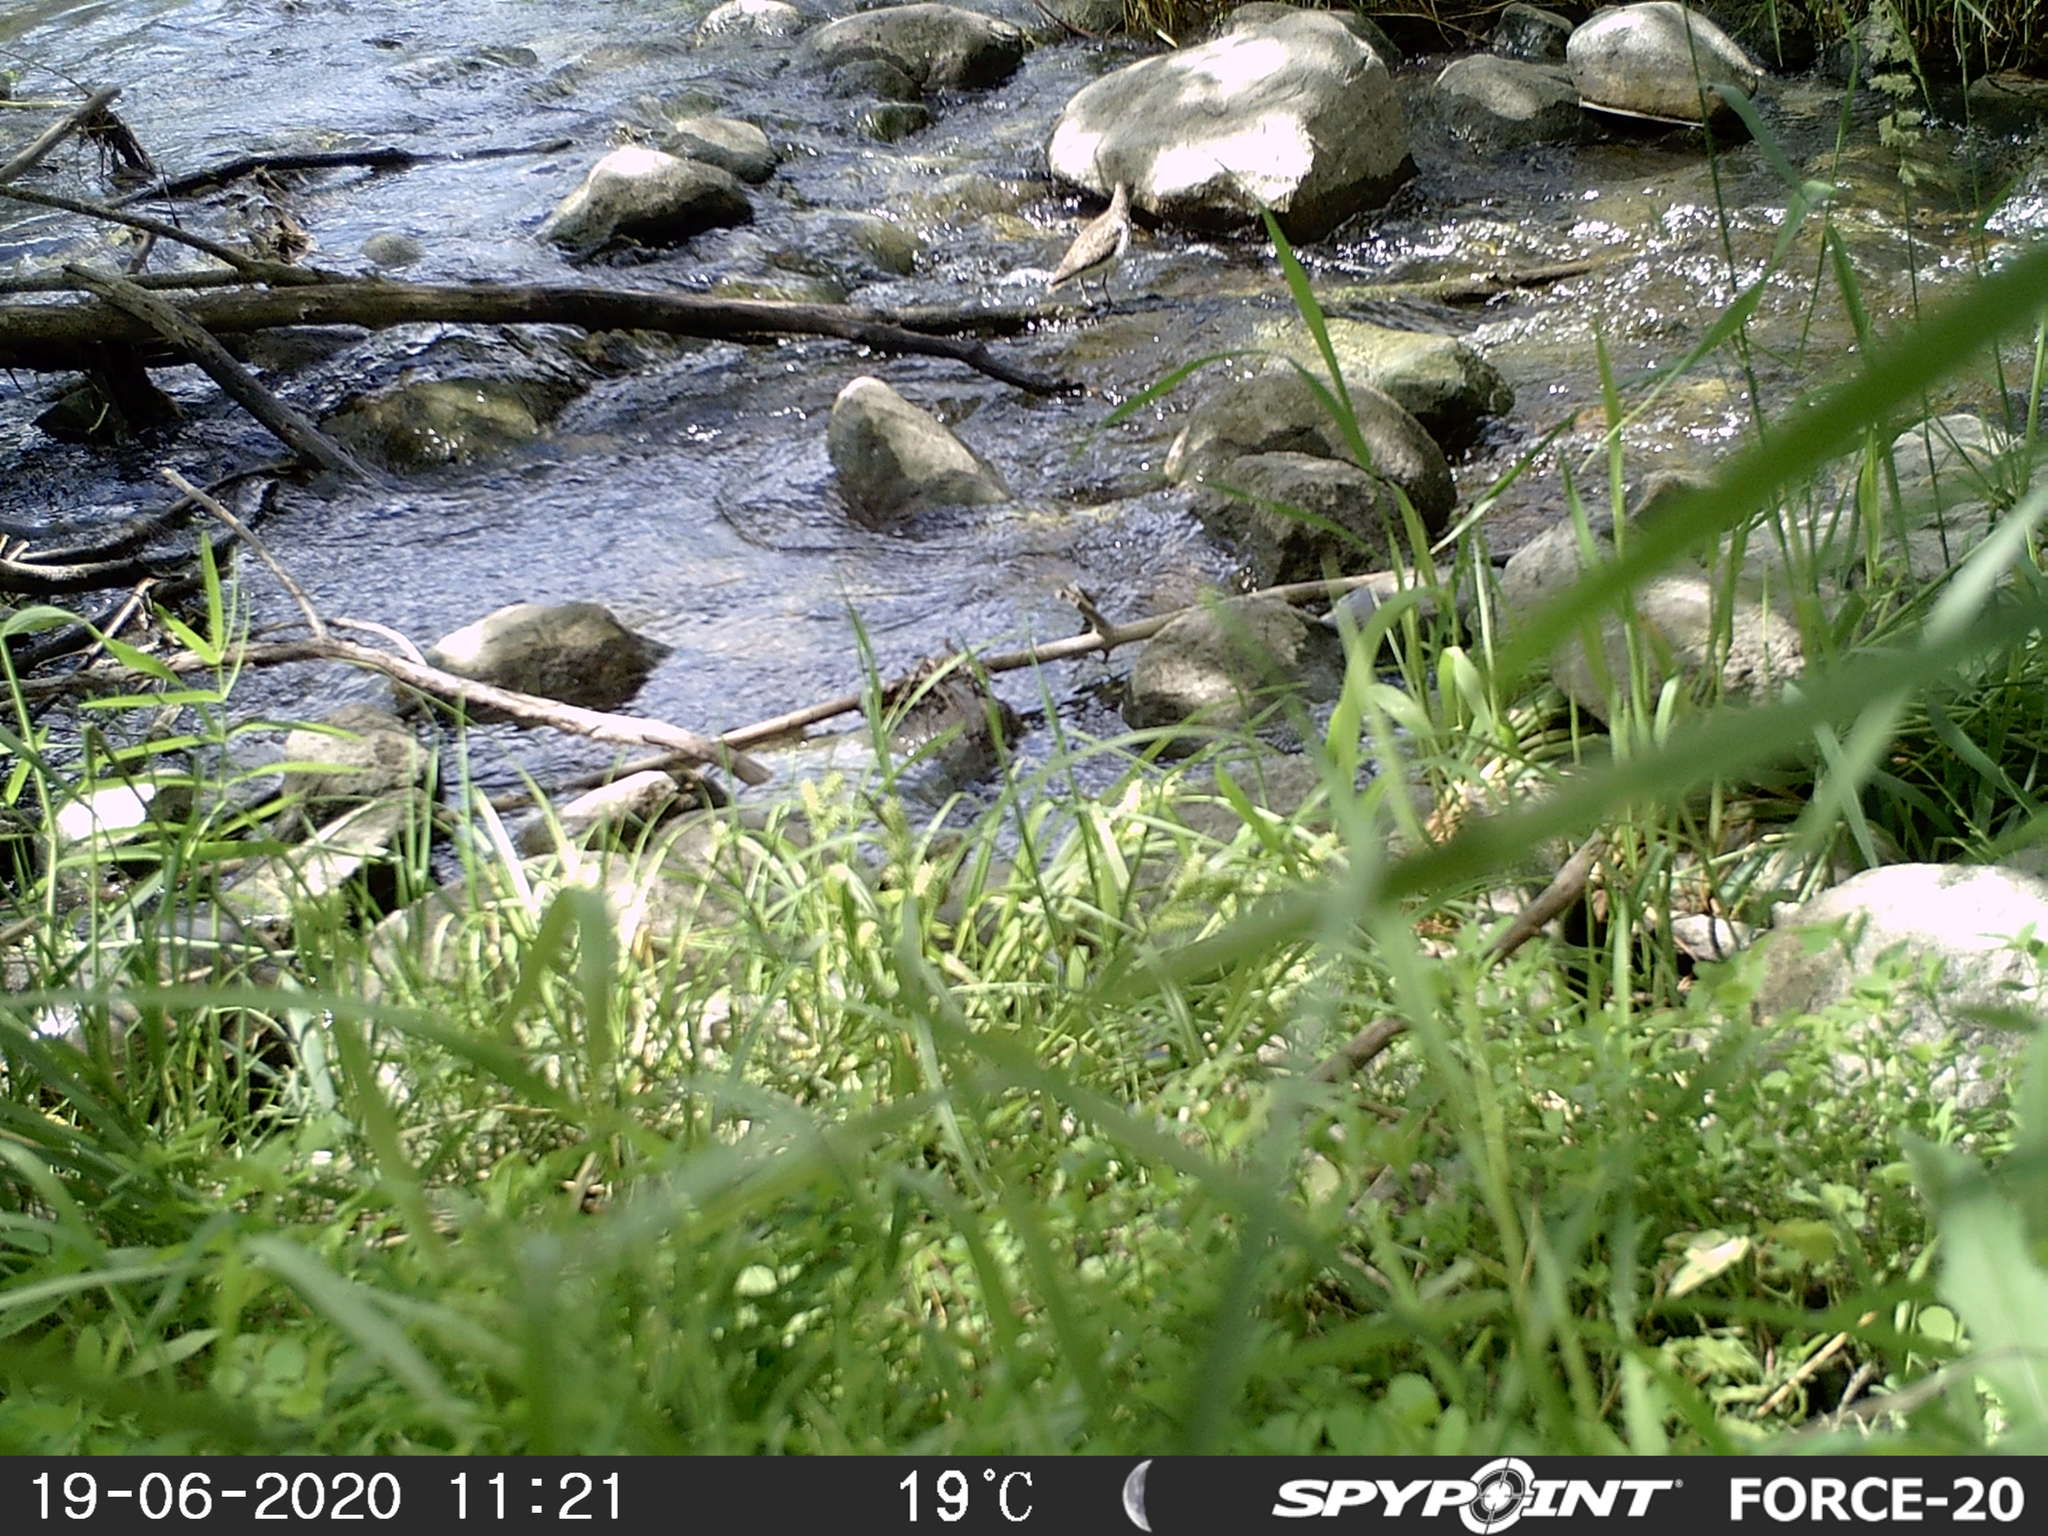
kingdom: Animalia
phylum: Chordata
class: Aves
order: Charadriiformes
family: Scolopacidae
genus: Actitis
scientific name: Actitis macularius
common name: Spotted sandpiper
